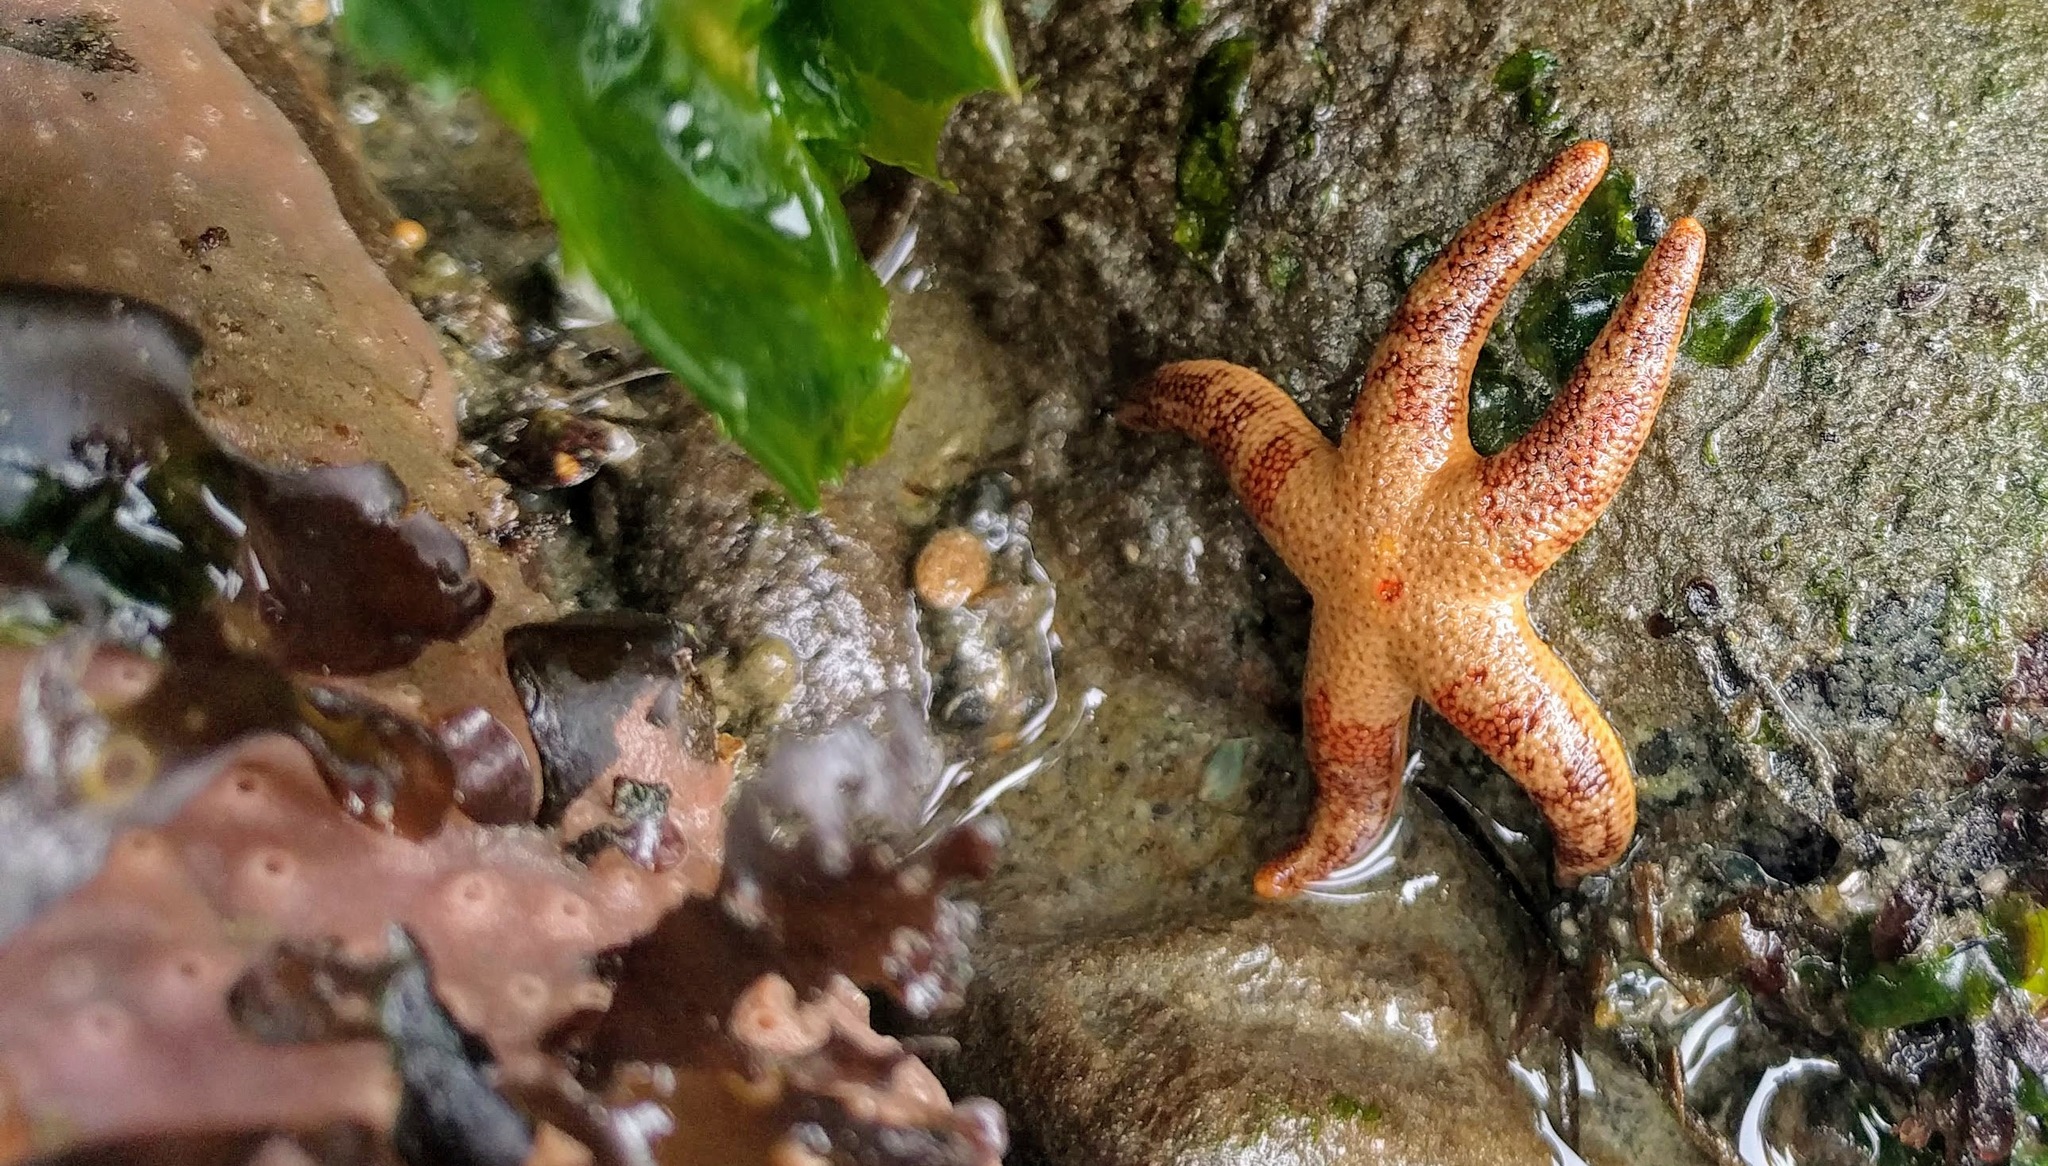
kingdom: Animalia
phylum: Echinodermata
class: Asteroidea
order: Spinulosida
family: Echinasteridae
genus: Henricia
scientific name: Henricia pumila
